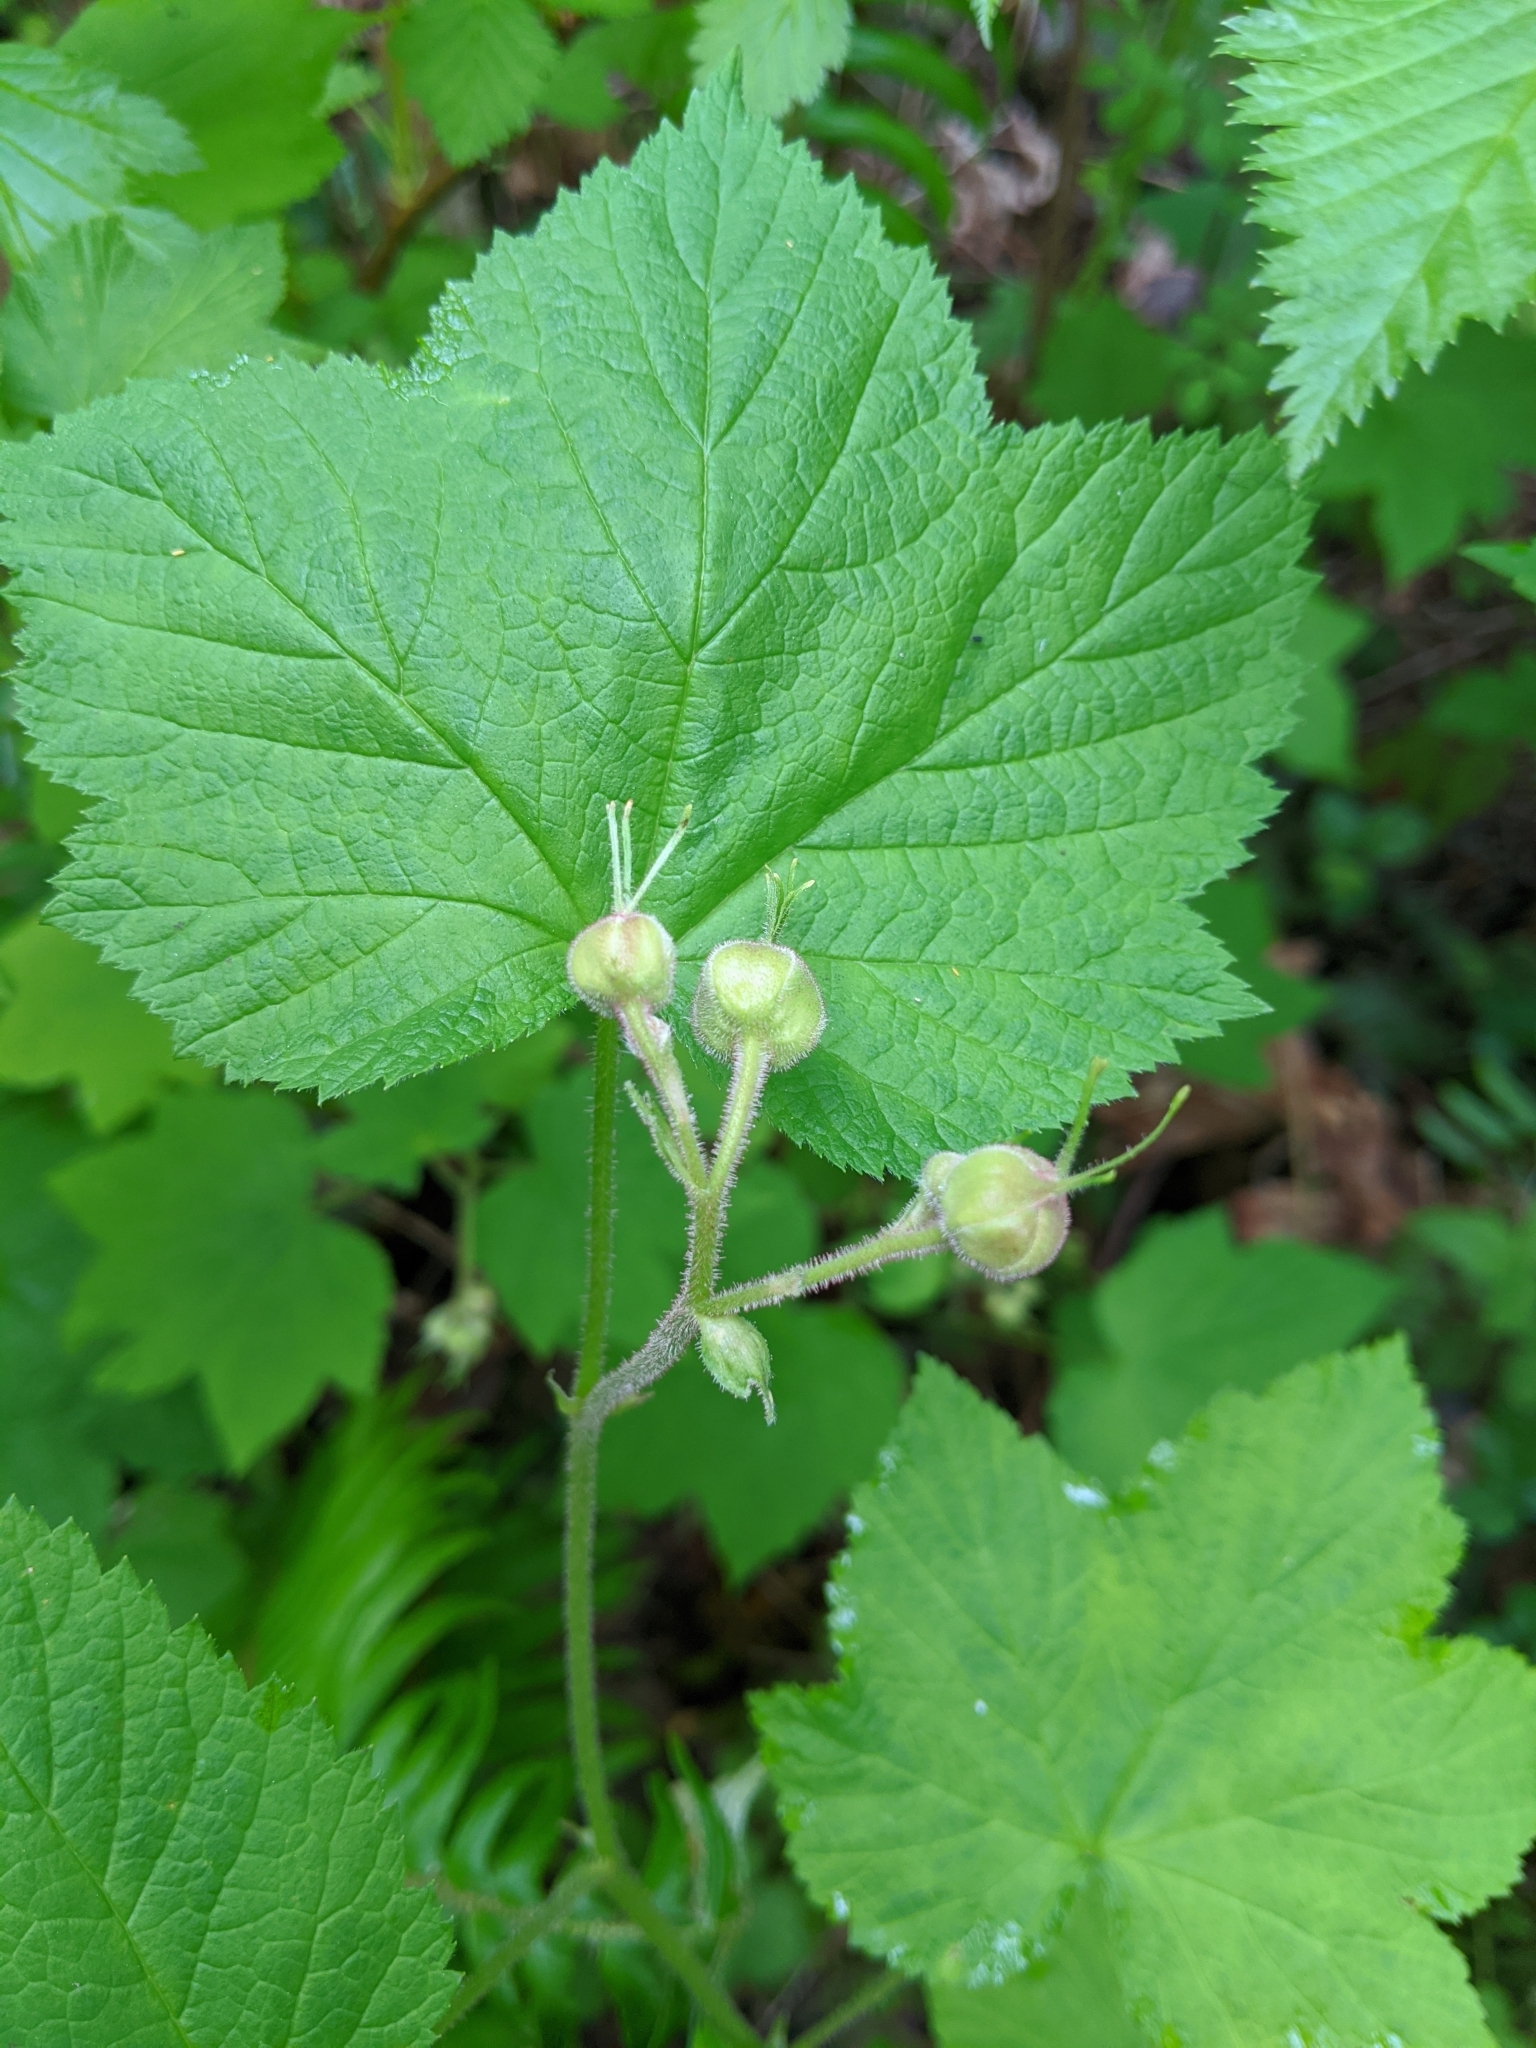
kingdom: Plantae
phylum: Tracheophyta
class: Magnoliopsida
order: Rosales
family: Rosaceae
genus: Rubus
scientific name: Rubus parviflorus
